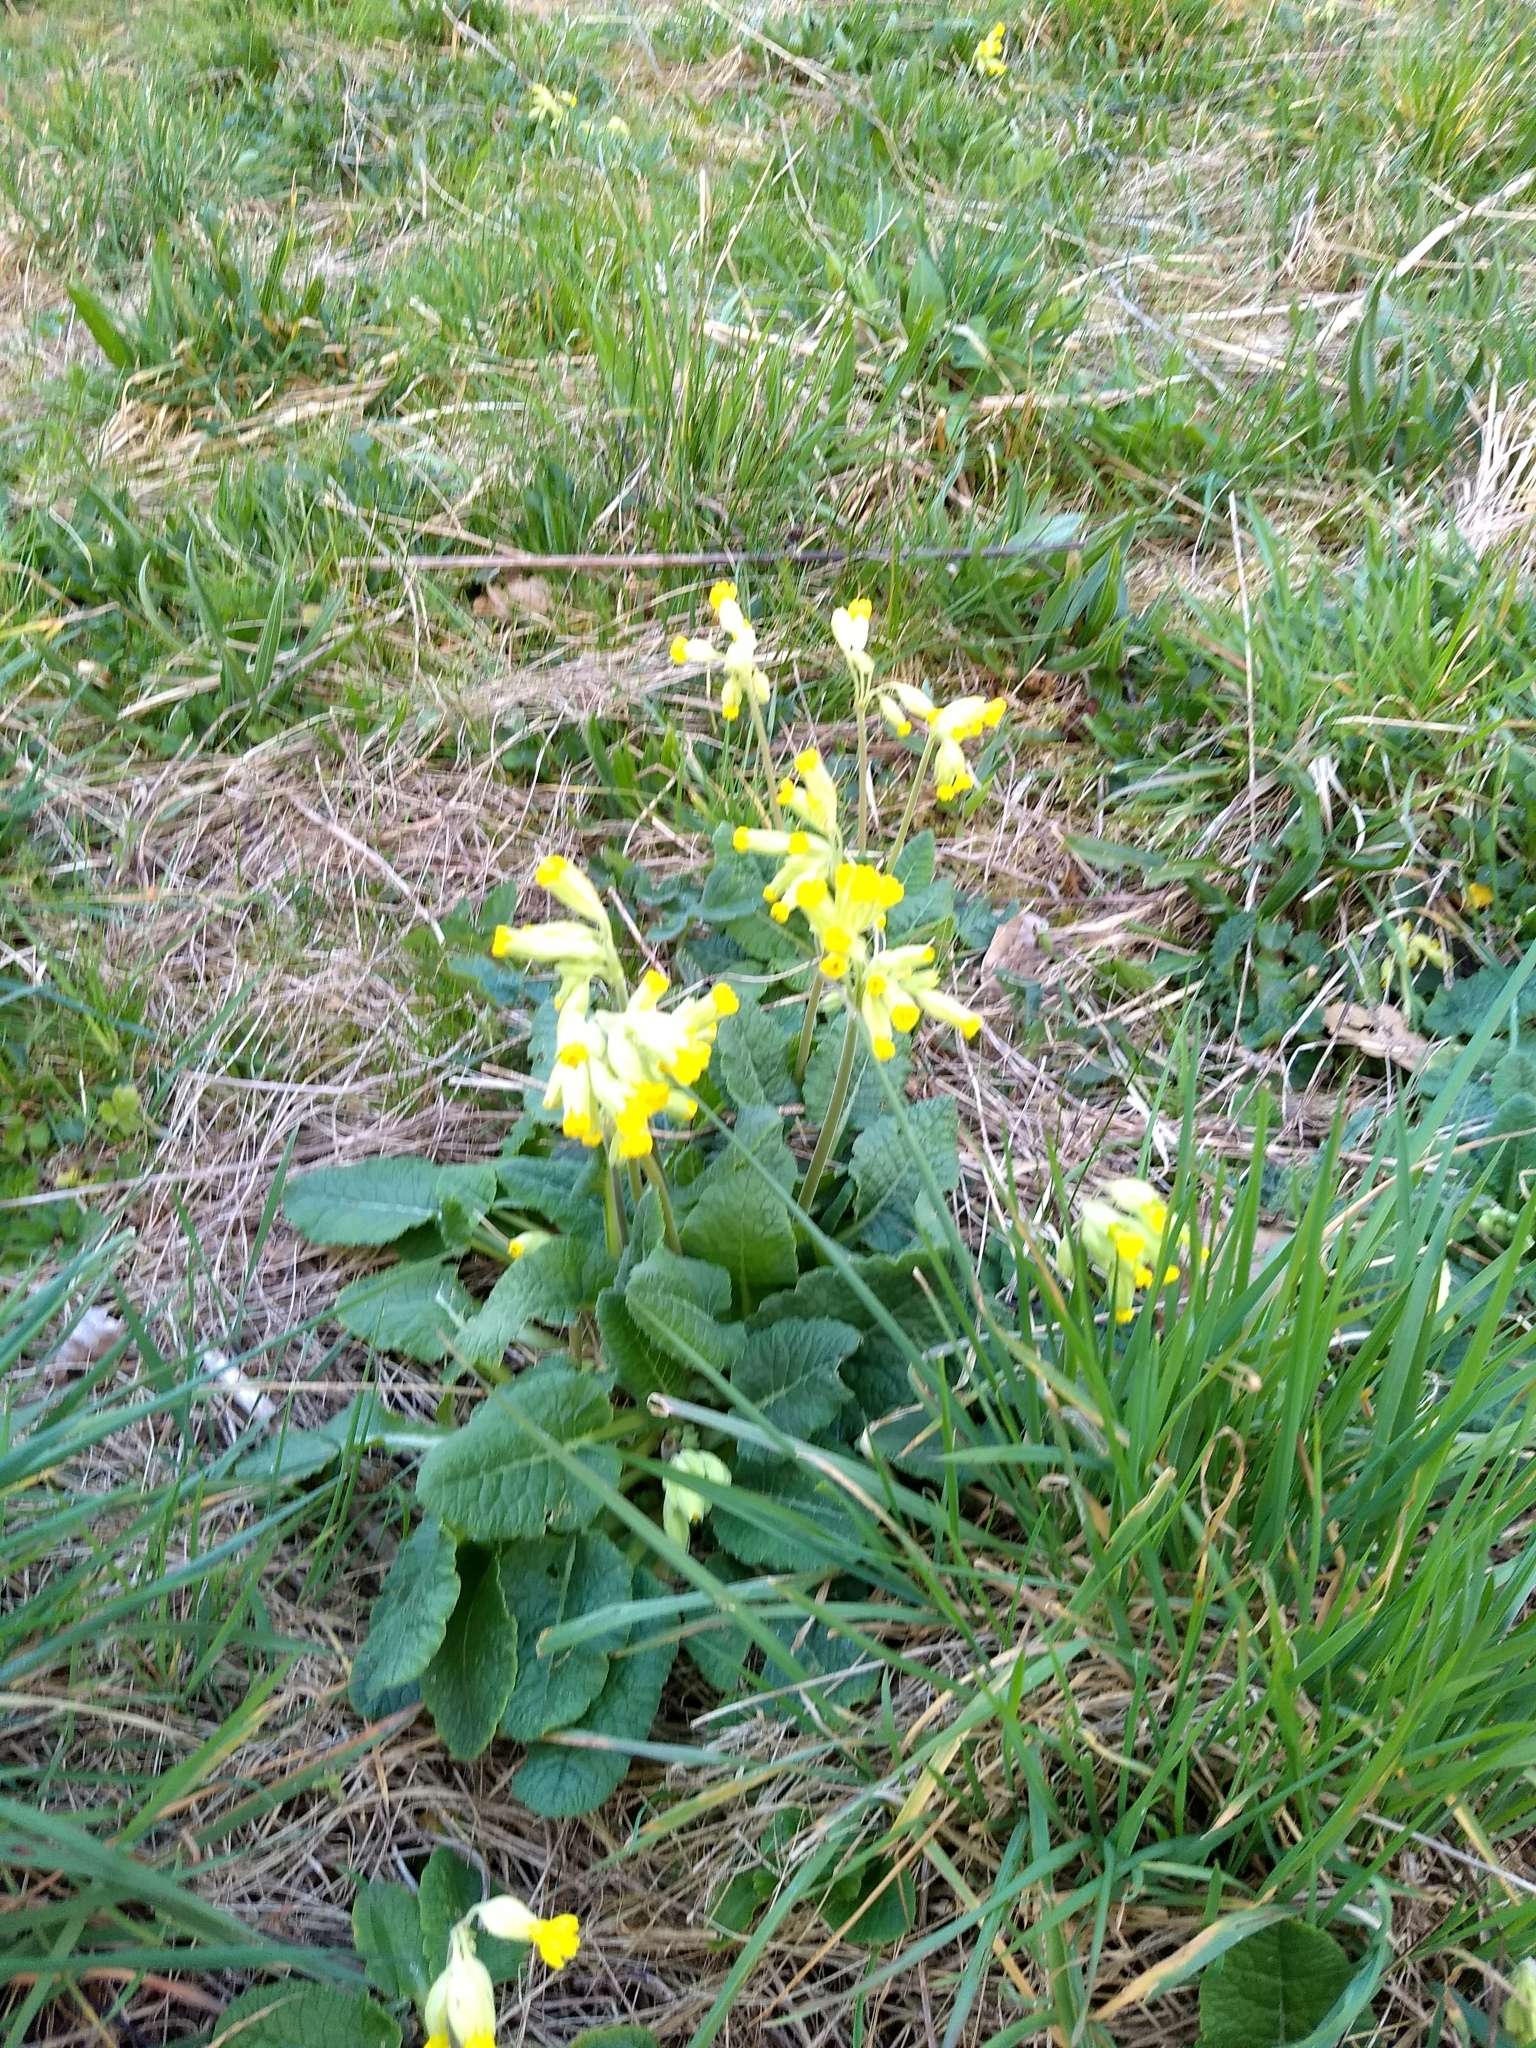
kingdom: Plantae
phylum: Tracheophyta
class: Magnoliopsida
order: Ericales
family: Primulaceae
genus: Primula
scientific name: Primula veris
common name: Cowslip
